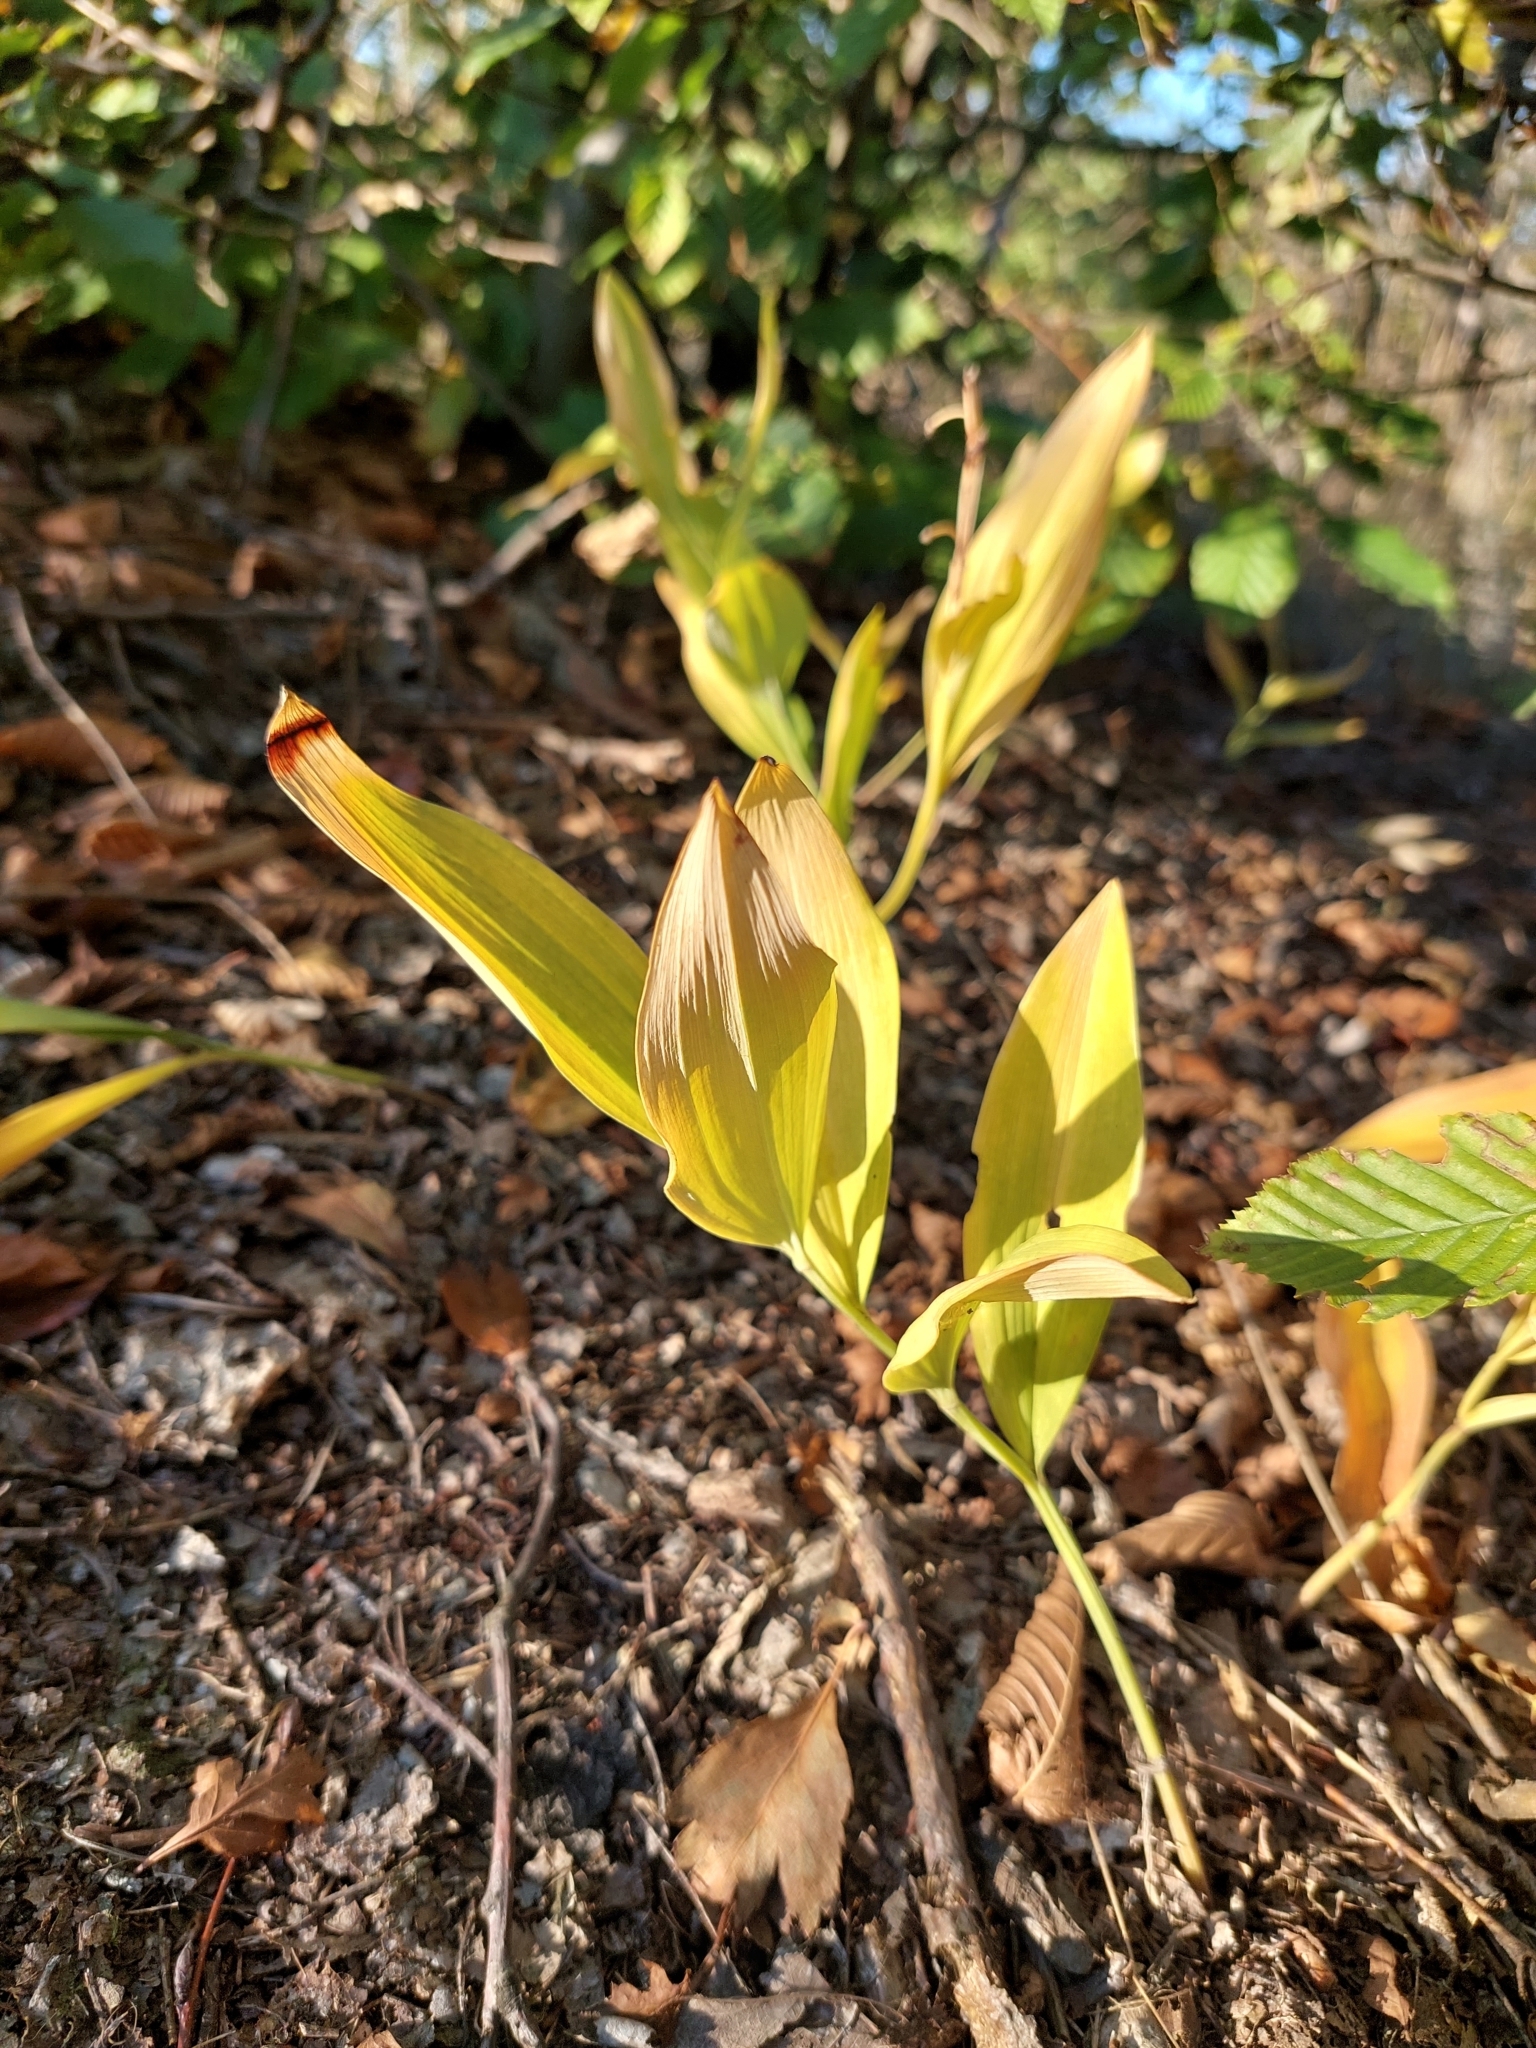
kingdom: Plantae
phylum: Tracheophyta
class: Liliopsida
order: Asparagales
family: Asparagaceae
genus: Polygonatum
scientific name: Polygonatum odoratum
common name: Angular solomon's-seal
